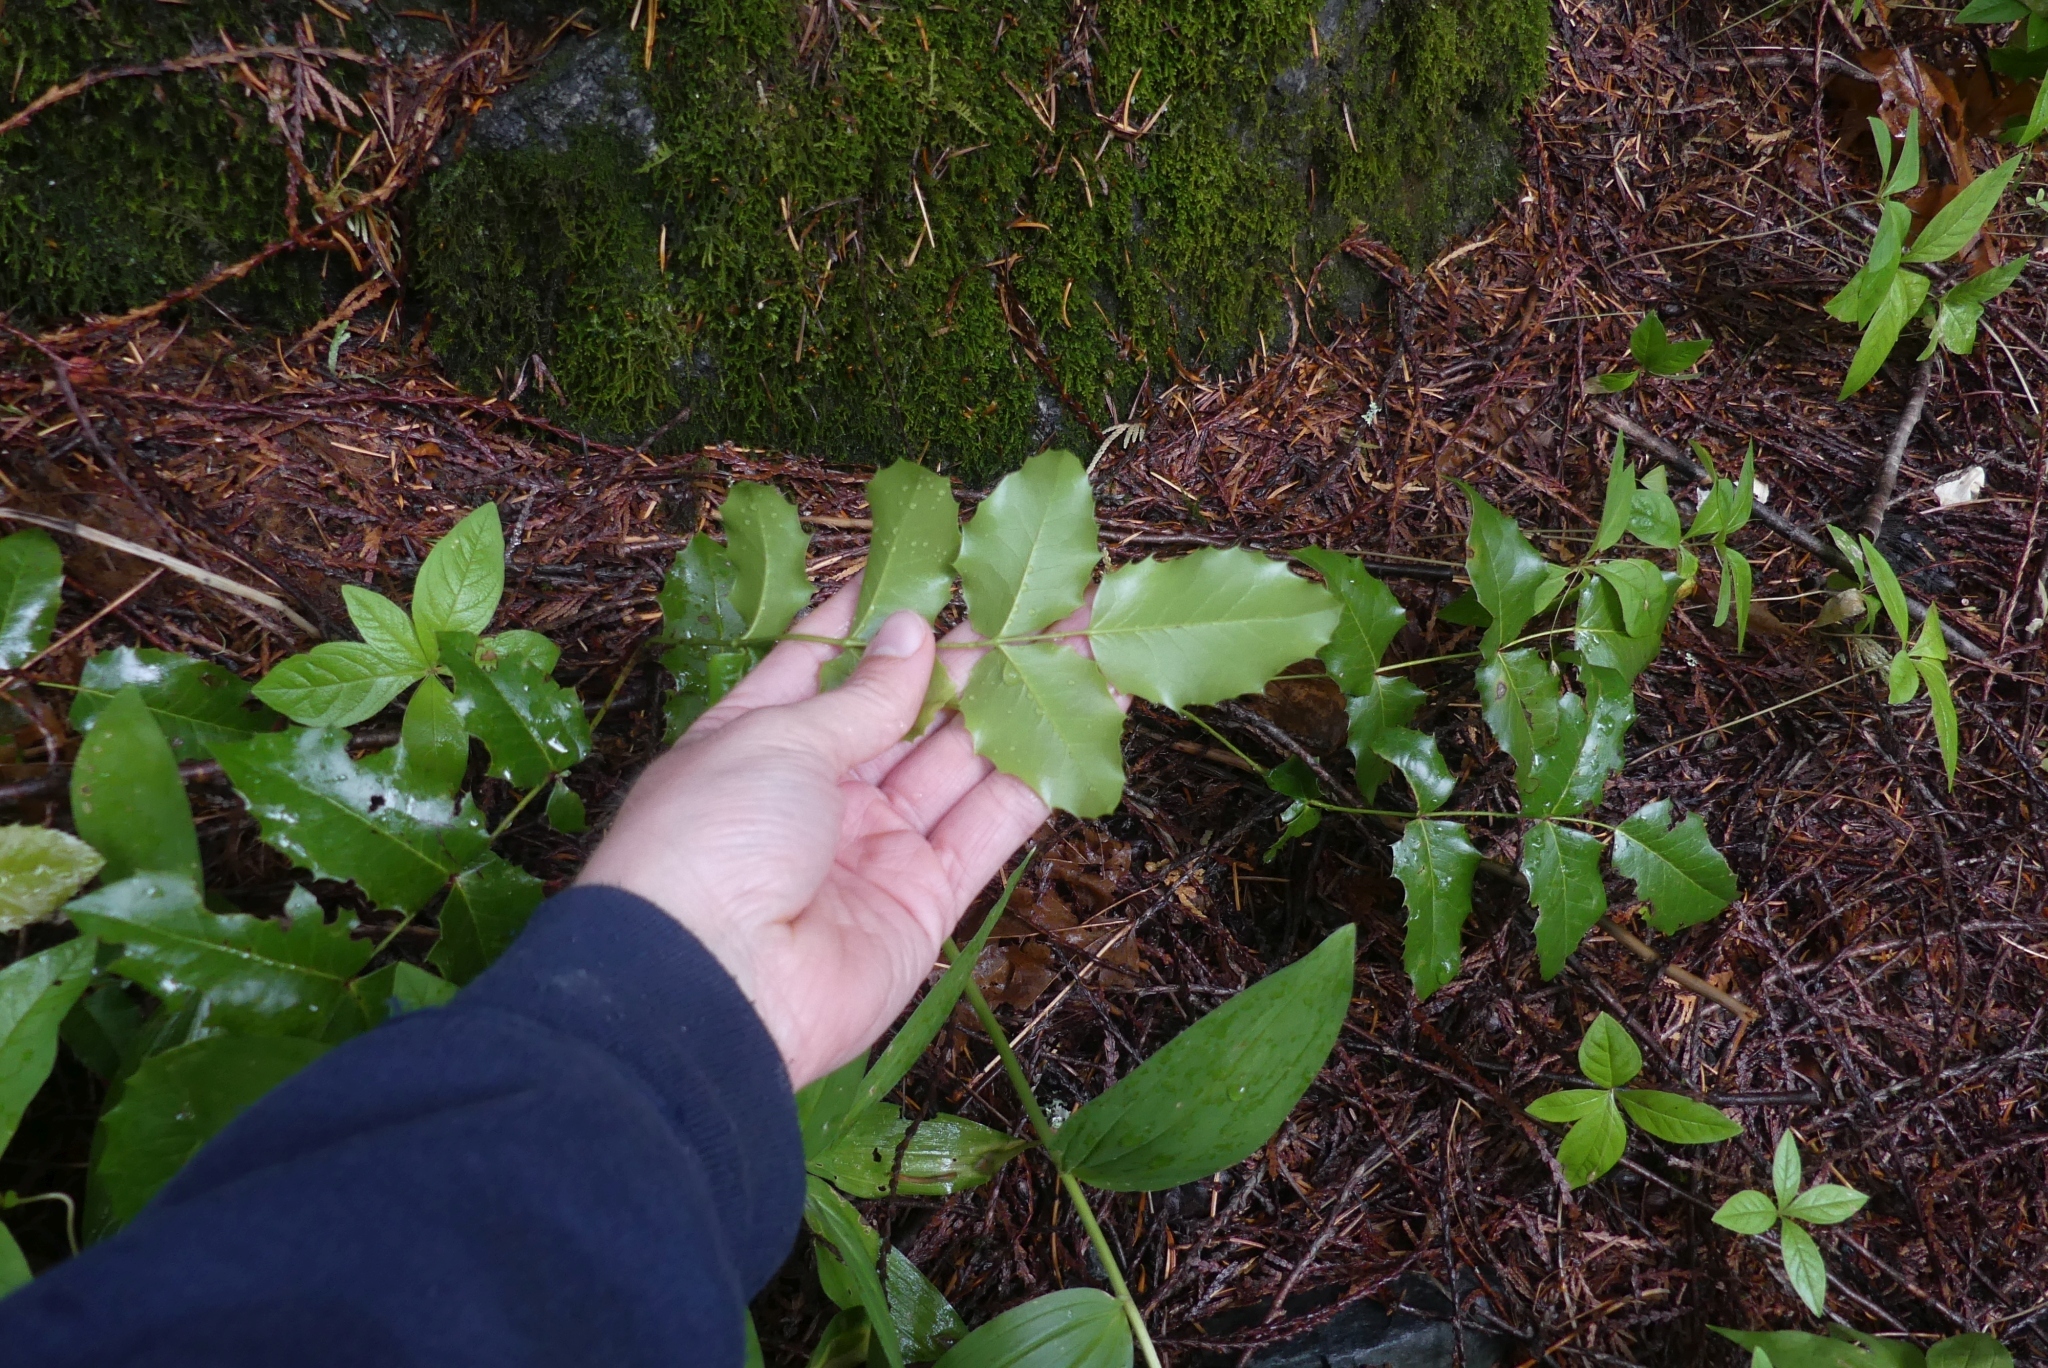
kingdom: Plantae
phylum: Tracheophyta
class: Magnoliopsida
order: Ranunculales
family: Berberidaceae
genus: Mahonia
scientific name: Mahonia aquifolium
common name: Oregon-grape
